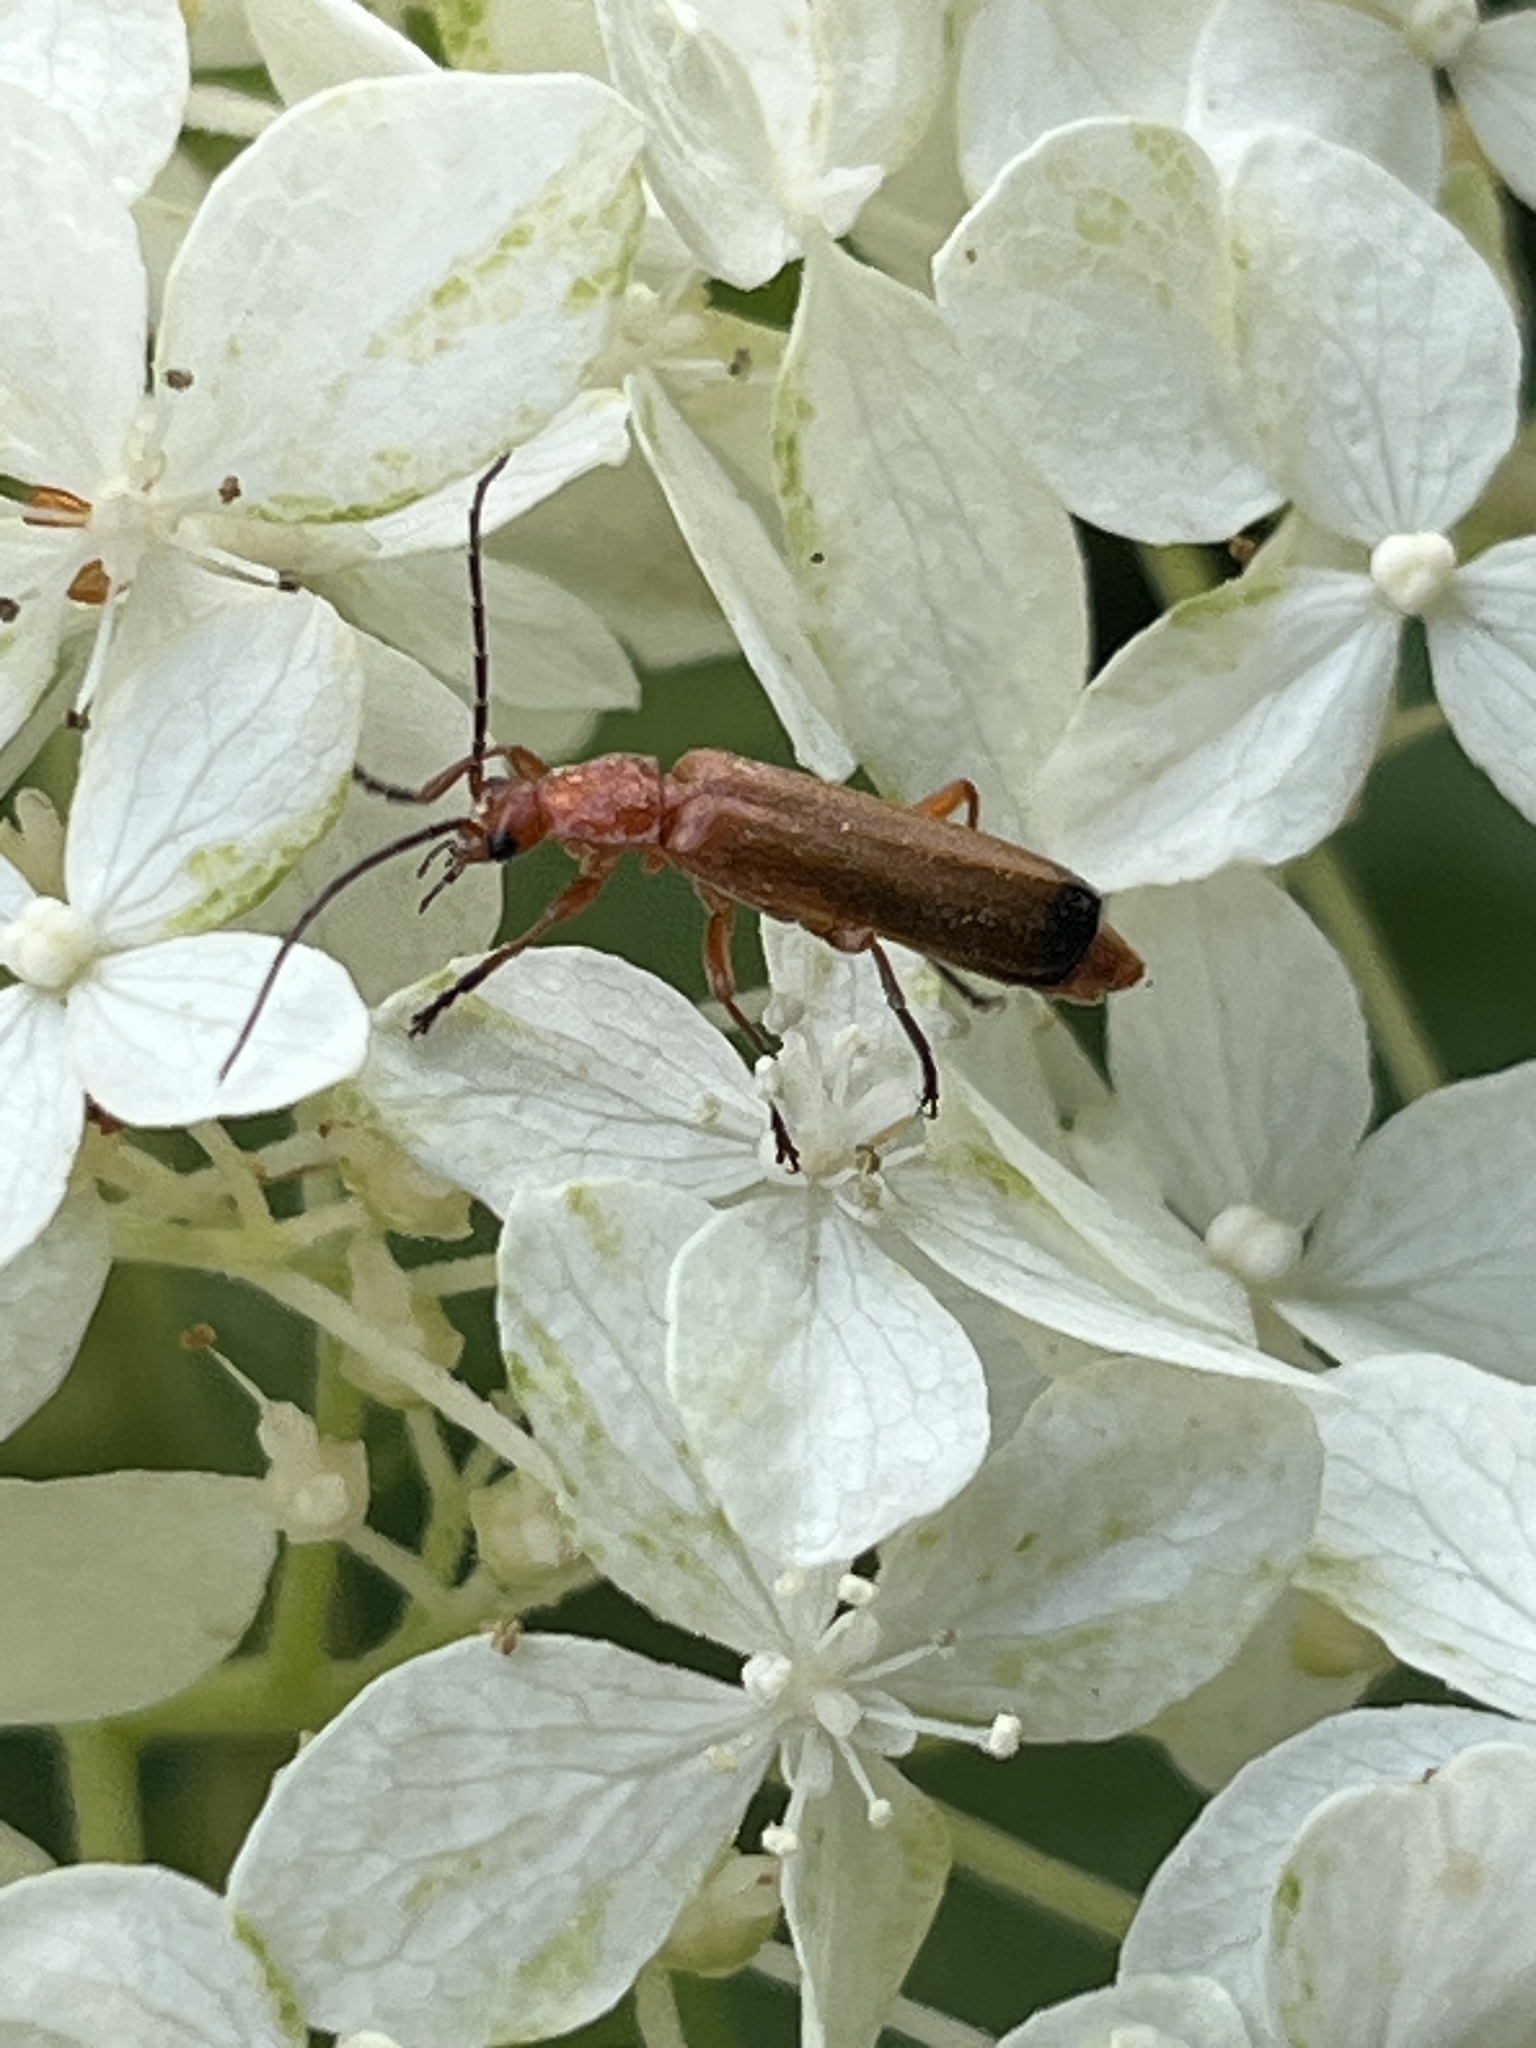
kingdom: Animalia
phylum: Arthropoda
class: Insecta
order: Coleoptera
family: Cantharidae
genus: Rhagonycha
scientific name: Rhagonycha fulva
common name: Common red soldier beetle
